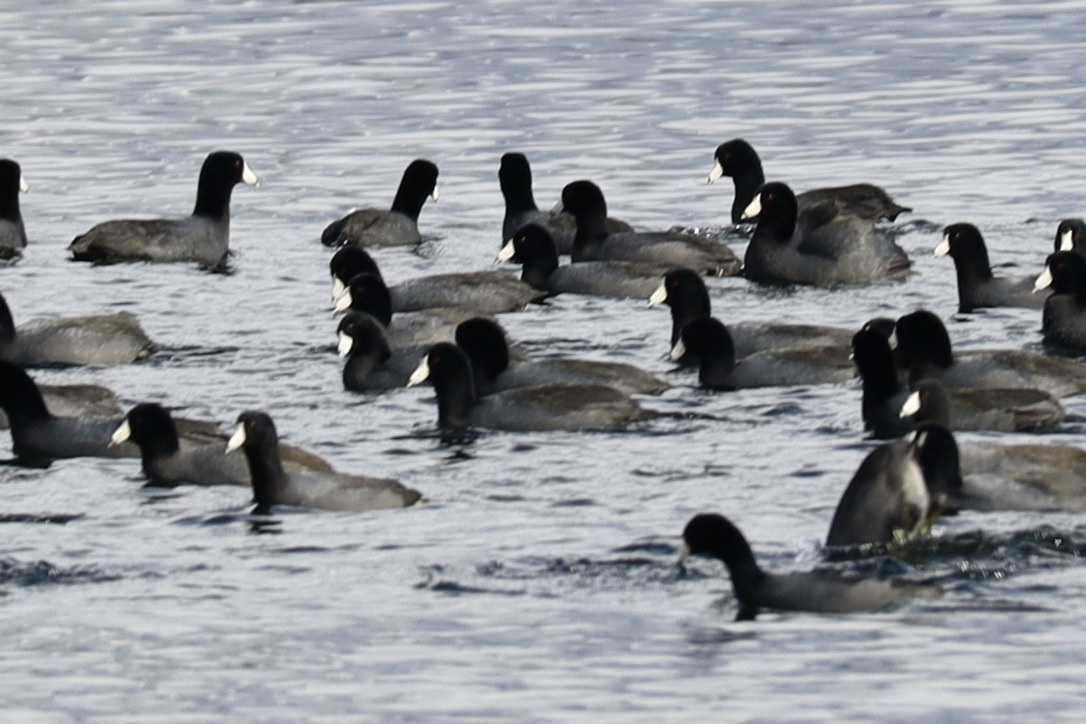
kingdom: Animalia
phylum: Chordata
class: Aves
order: Gruiformes
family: Rallidae
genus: Fulica
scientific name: Fulica americana
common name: American coot
